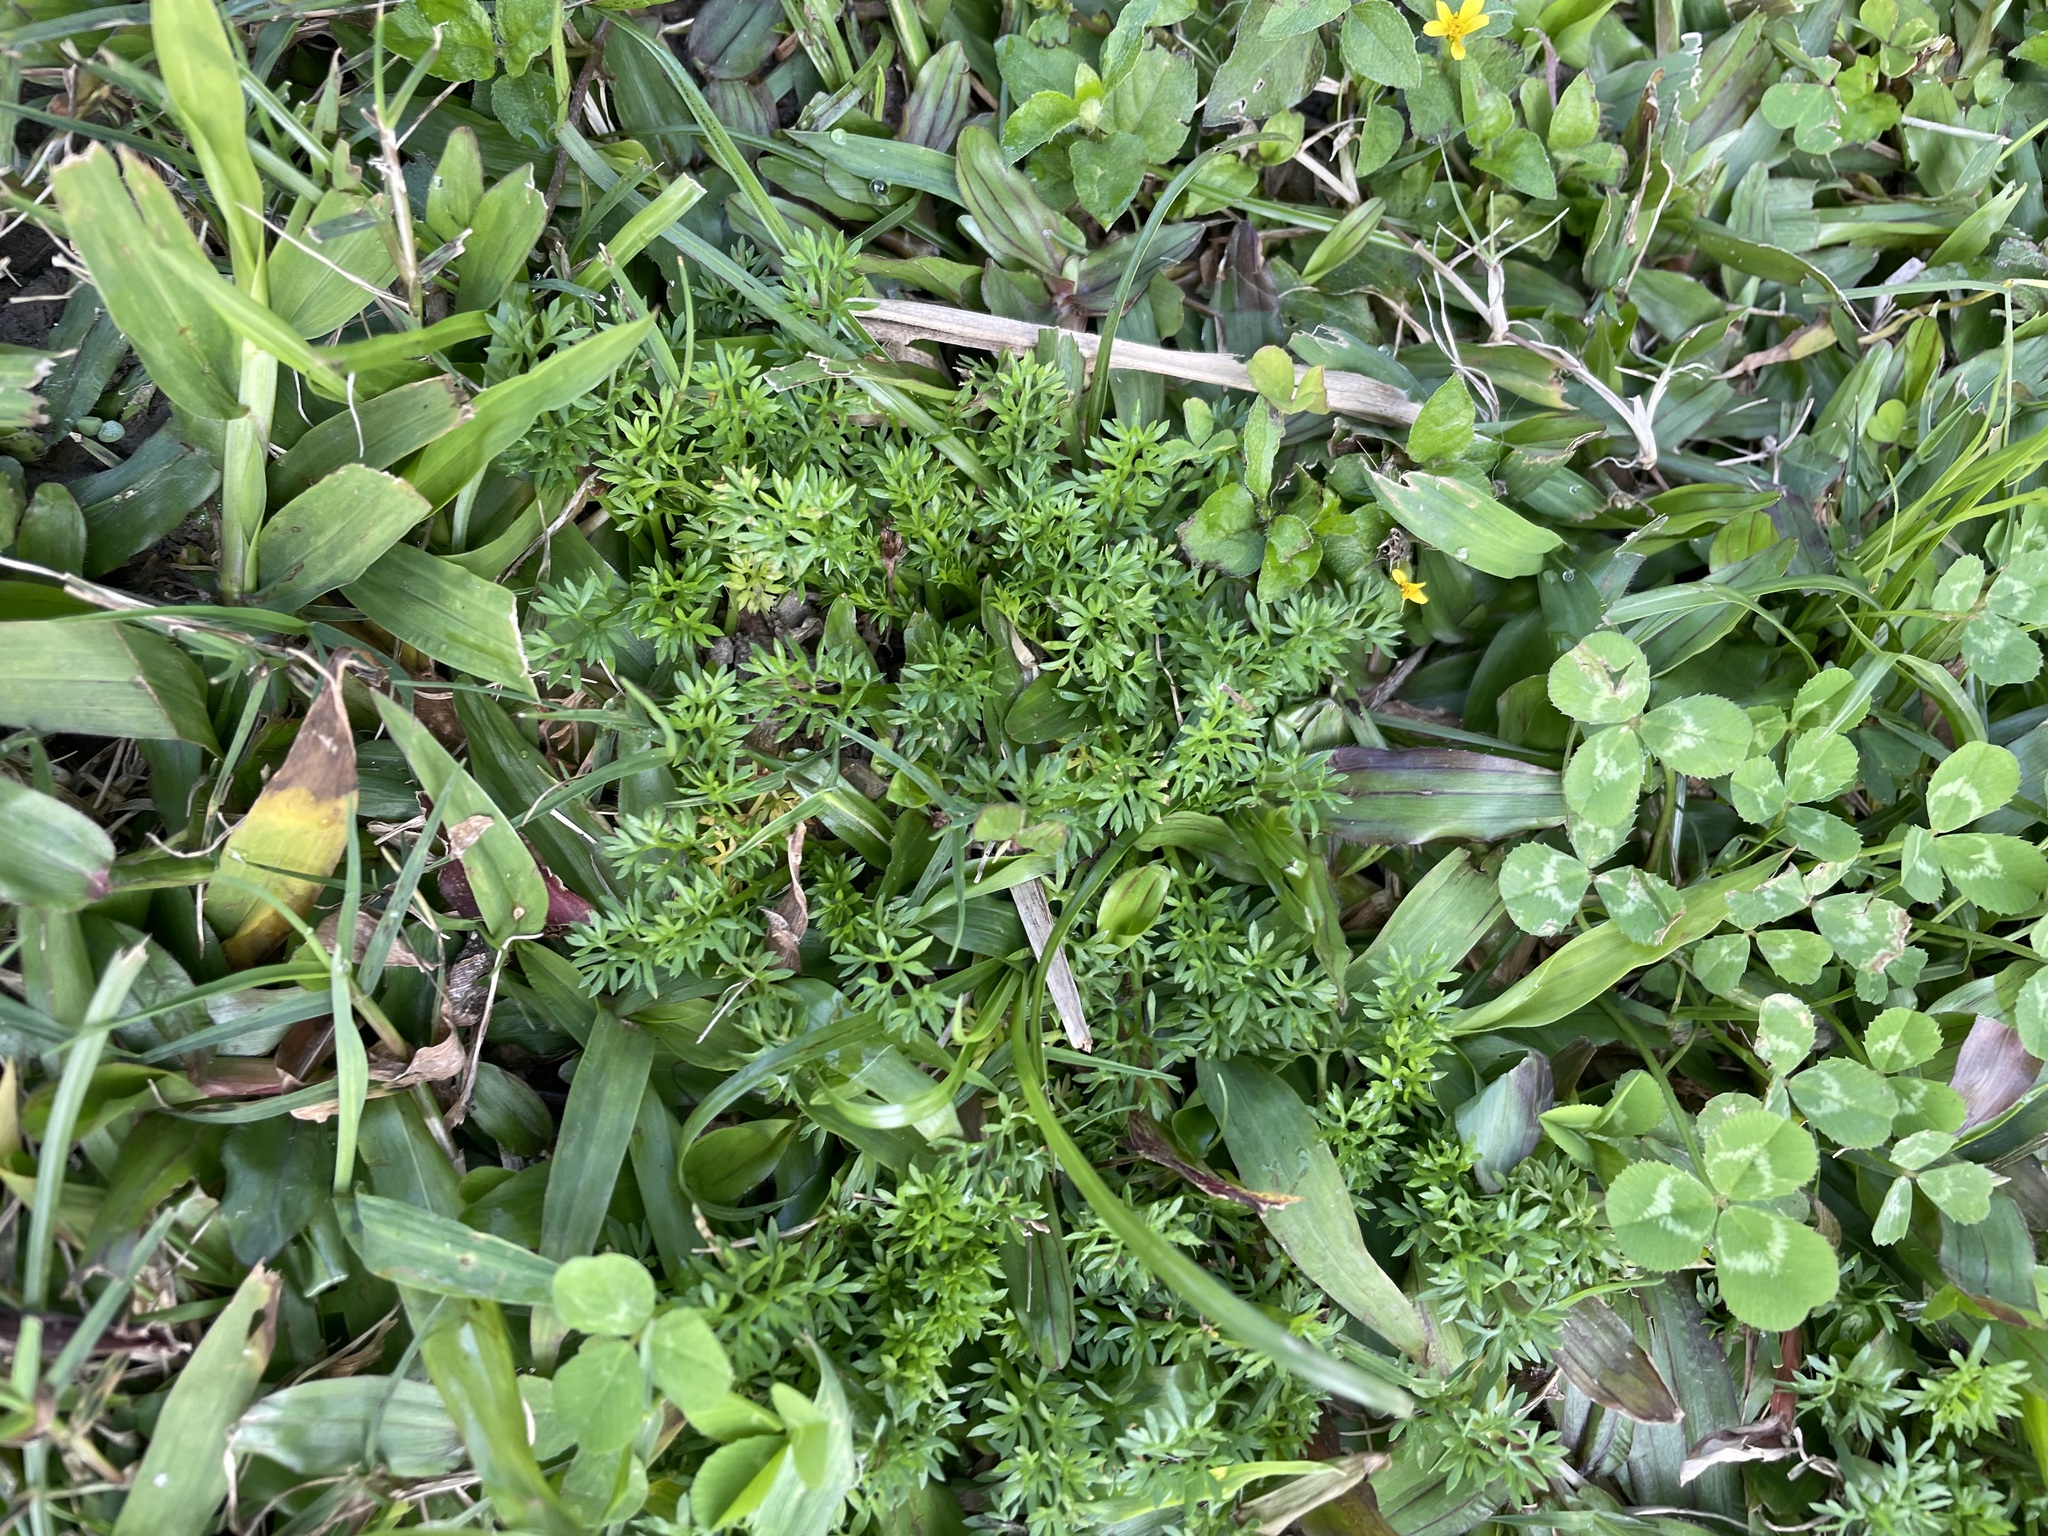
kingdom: Plantae
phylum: Tracheophyta
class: Magnoliopsida
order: Asterales
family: Asteraceae
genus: Soliva
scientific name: Soliva anthemifolia
